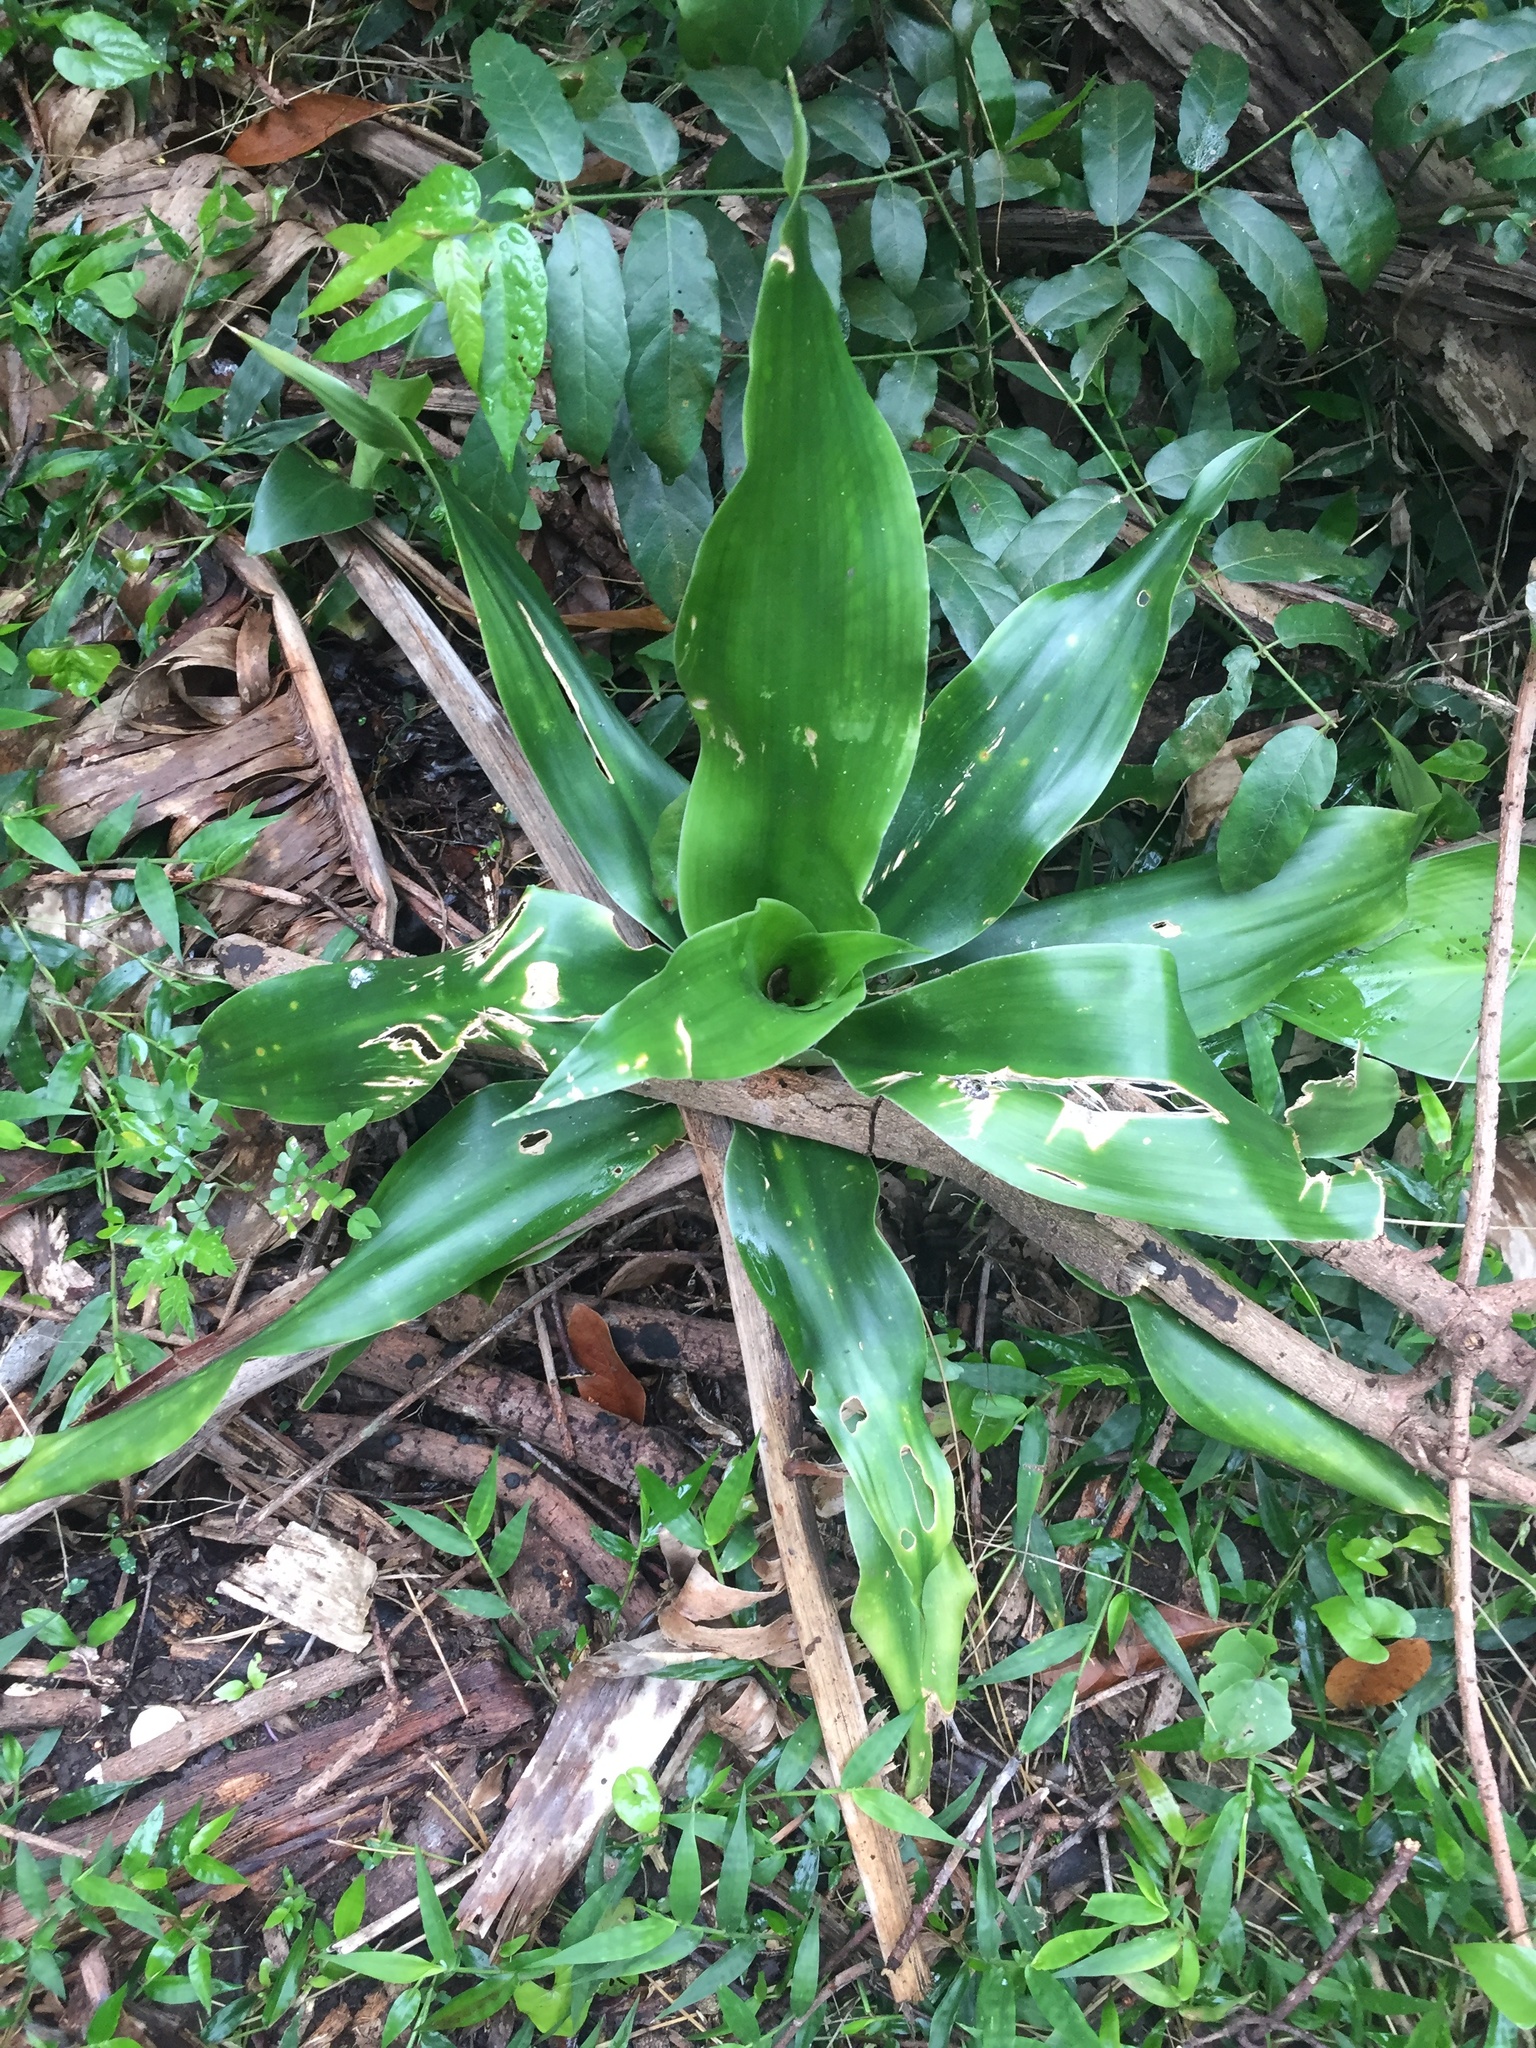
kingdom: Plantae
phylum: Tracheophyta
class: Liliopsida
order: Asparagales
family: Asparagaceae
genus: Dracaena
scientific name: Dracaena aletriformis
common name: Large-leaved dragon tree
